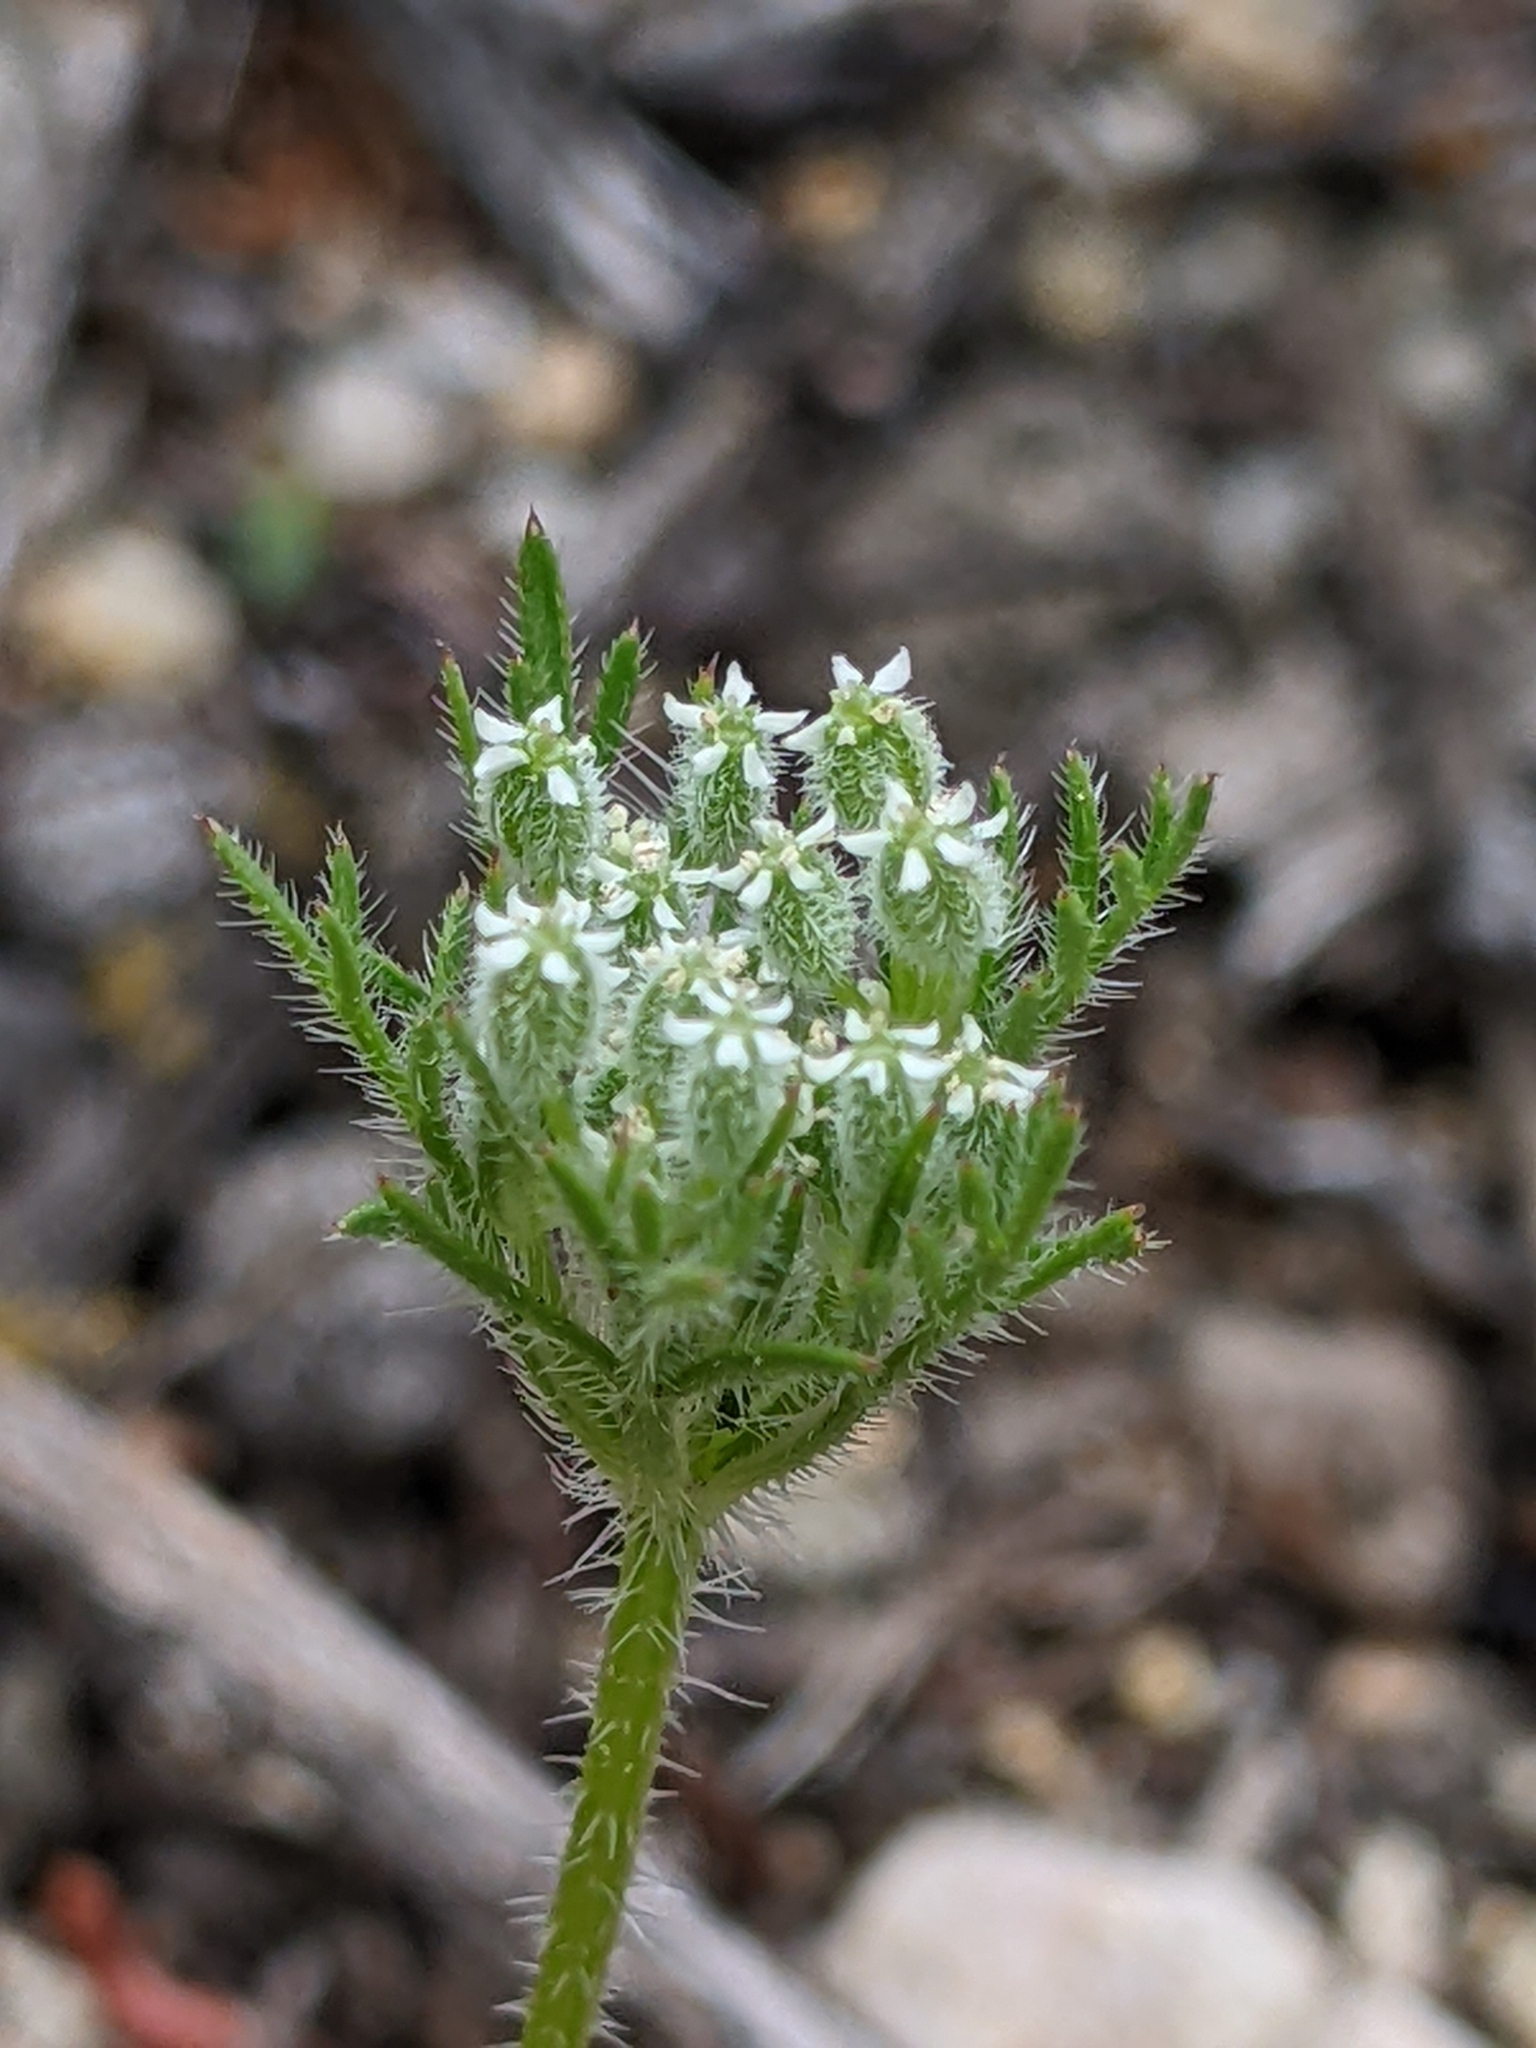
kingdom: Plantae
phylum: Tracheophyta
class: Magnoliopsida
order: Apiales
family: Apiaceae
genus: Daucus
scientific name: Daucus pusillus
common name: Southwest wild carrot
